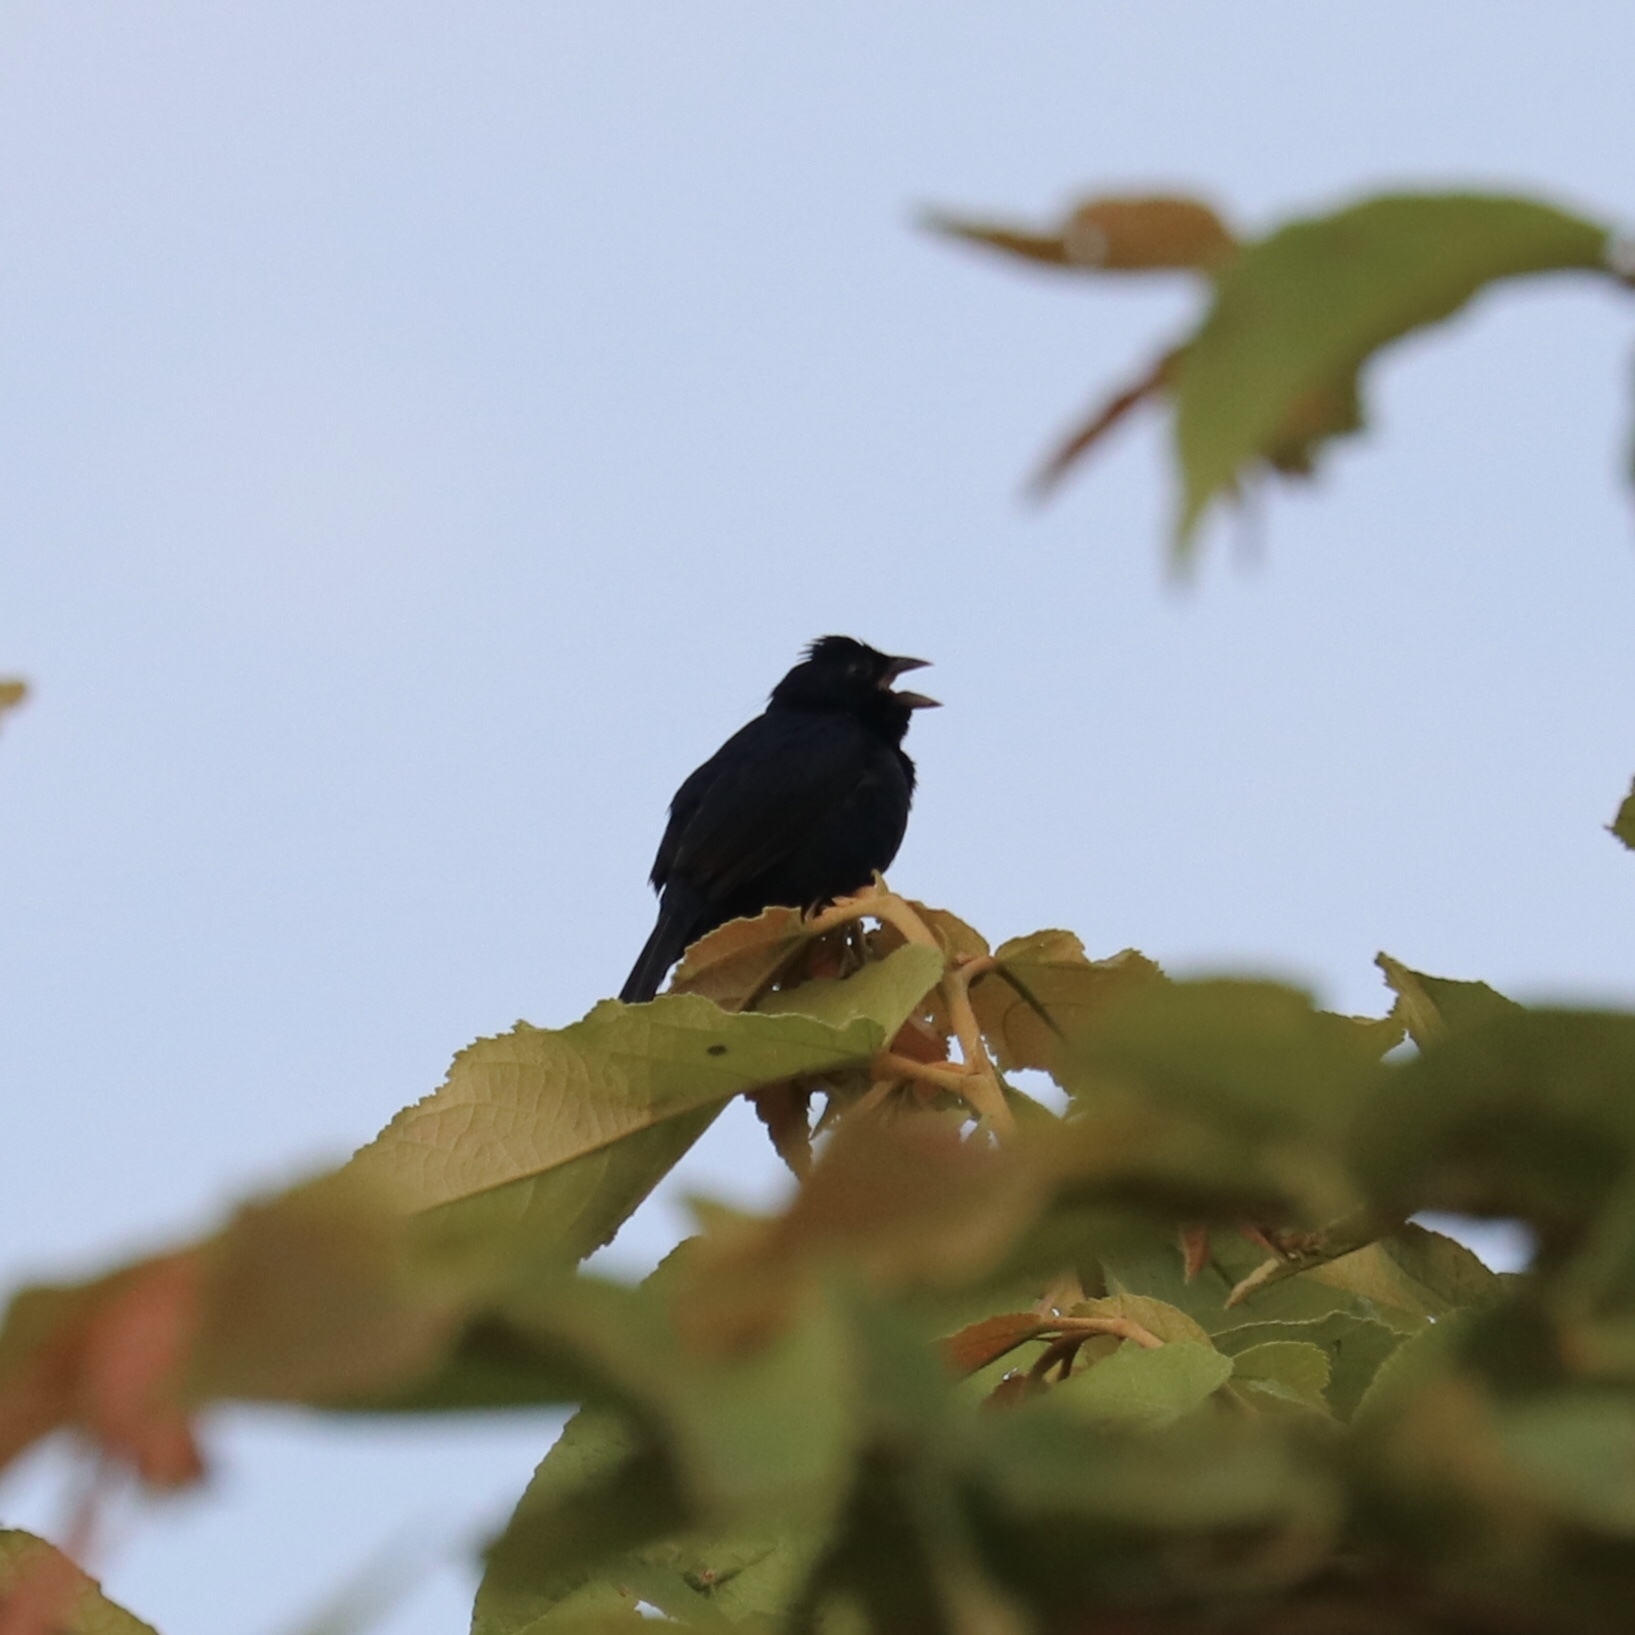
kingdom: Animalia
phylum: Chordata
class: Aves
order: Passeriformes
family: Thraupidae
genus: Volatinia
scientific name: Volatinia jacarina
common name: Blue-black grassquit
